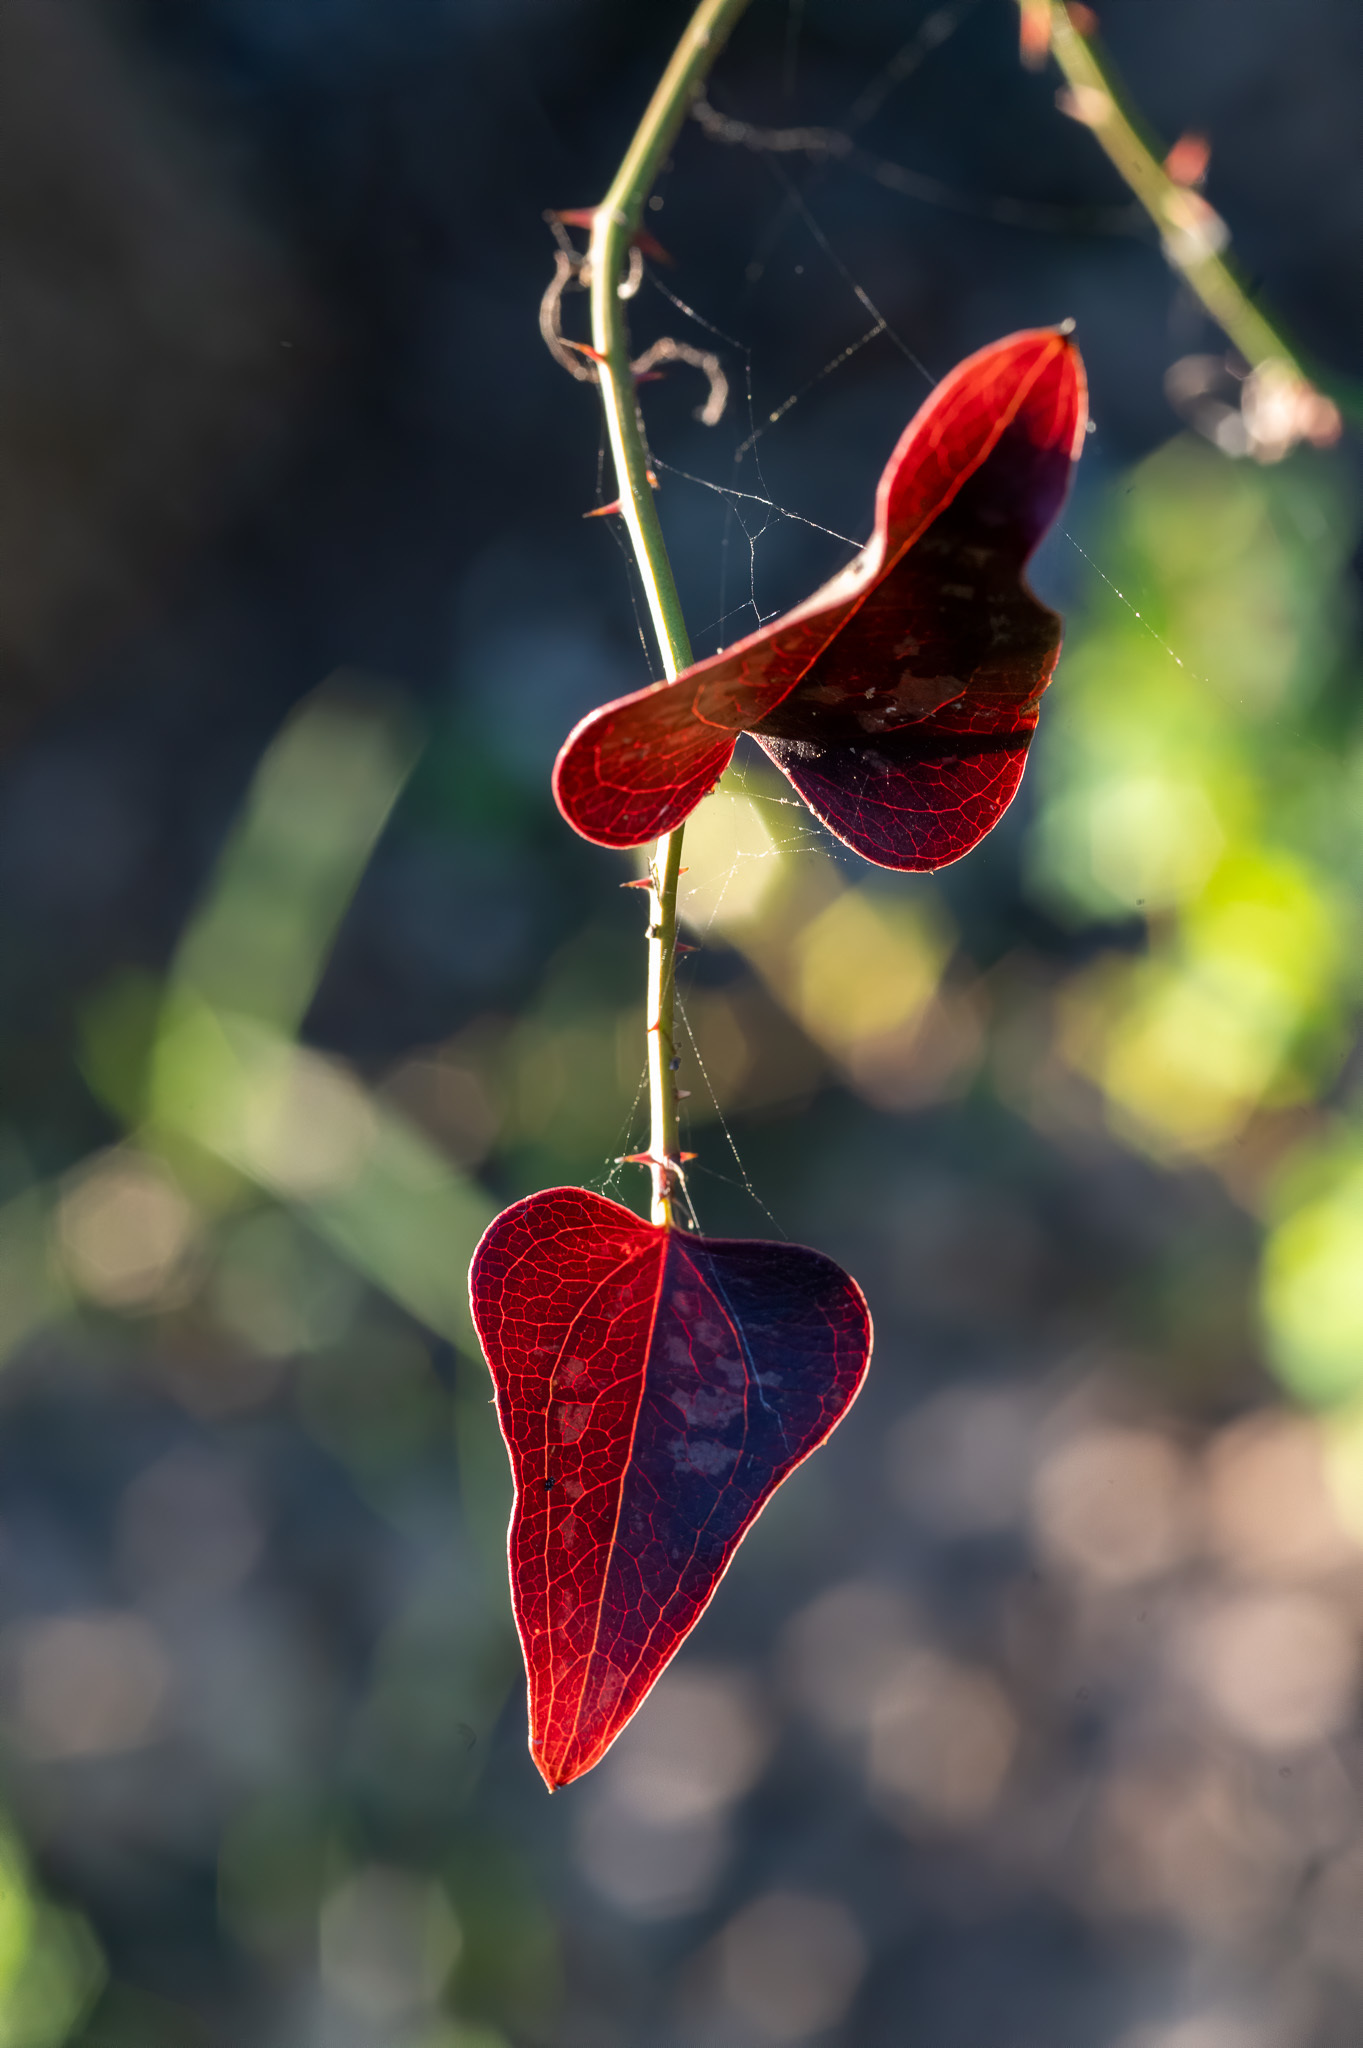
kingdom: Plantae
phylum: Tracheophyta
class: Liliopsida
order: Liliales
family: Smilacaceae
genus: Smilax
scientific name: Smilax bona-nox
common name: Catbrier
